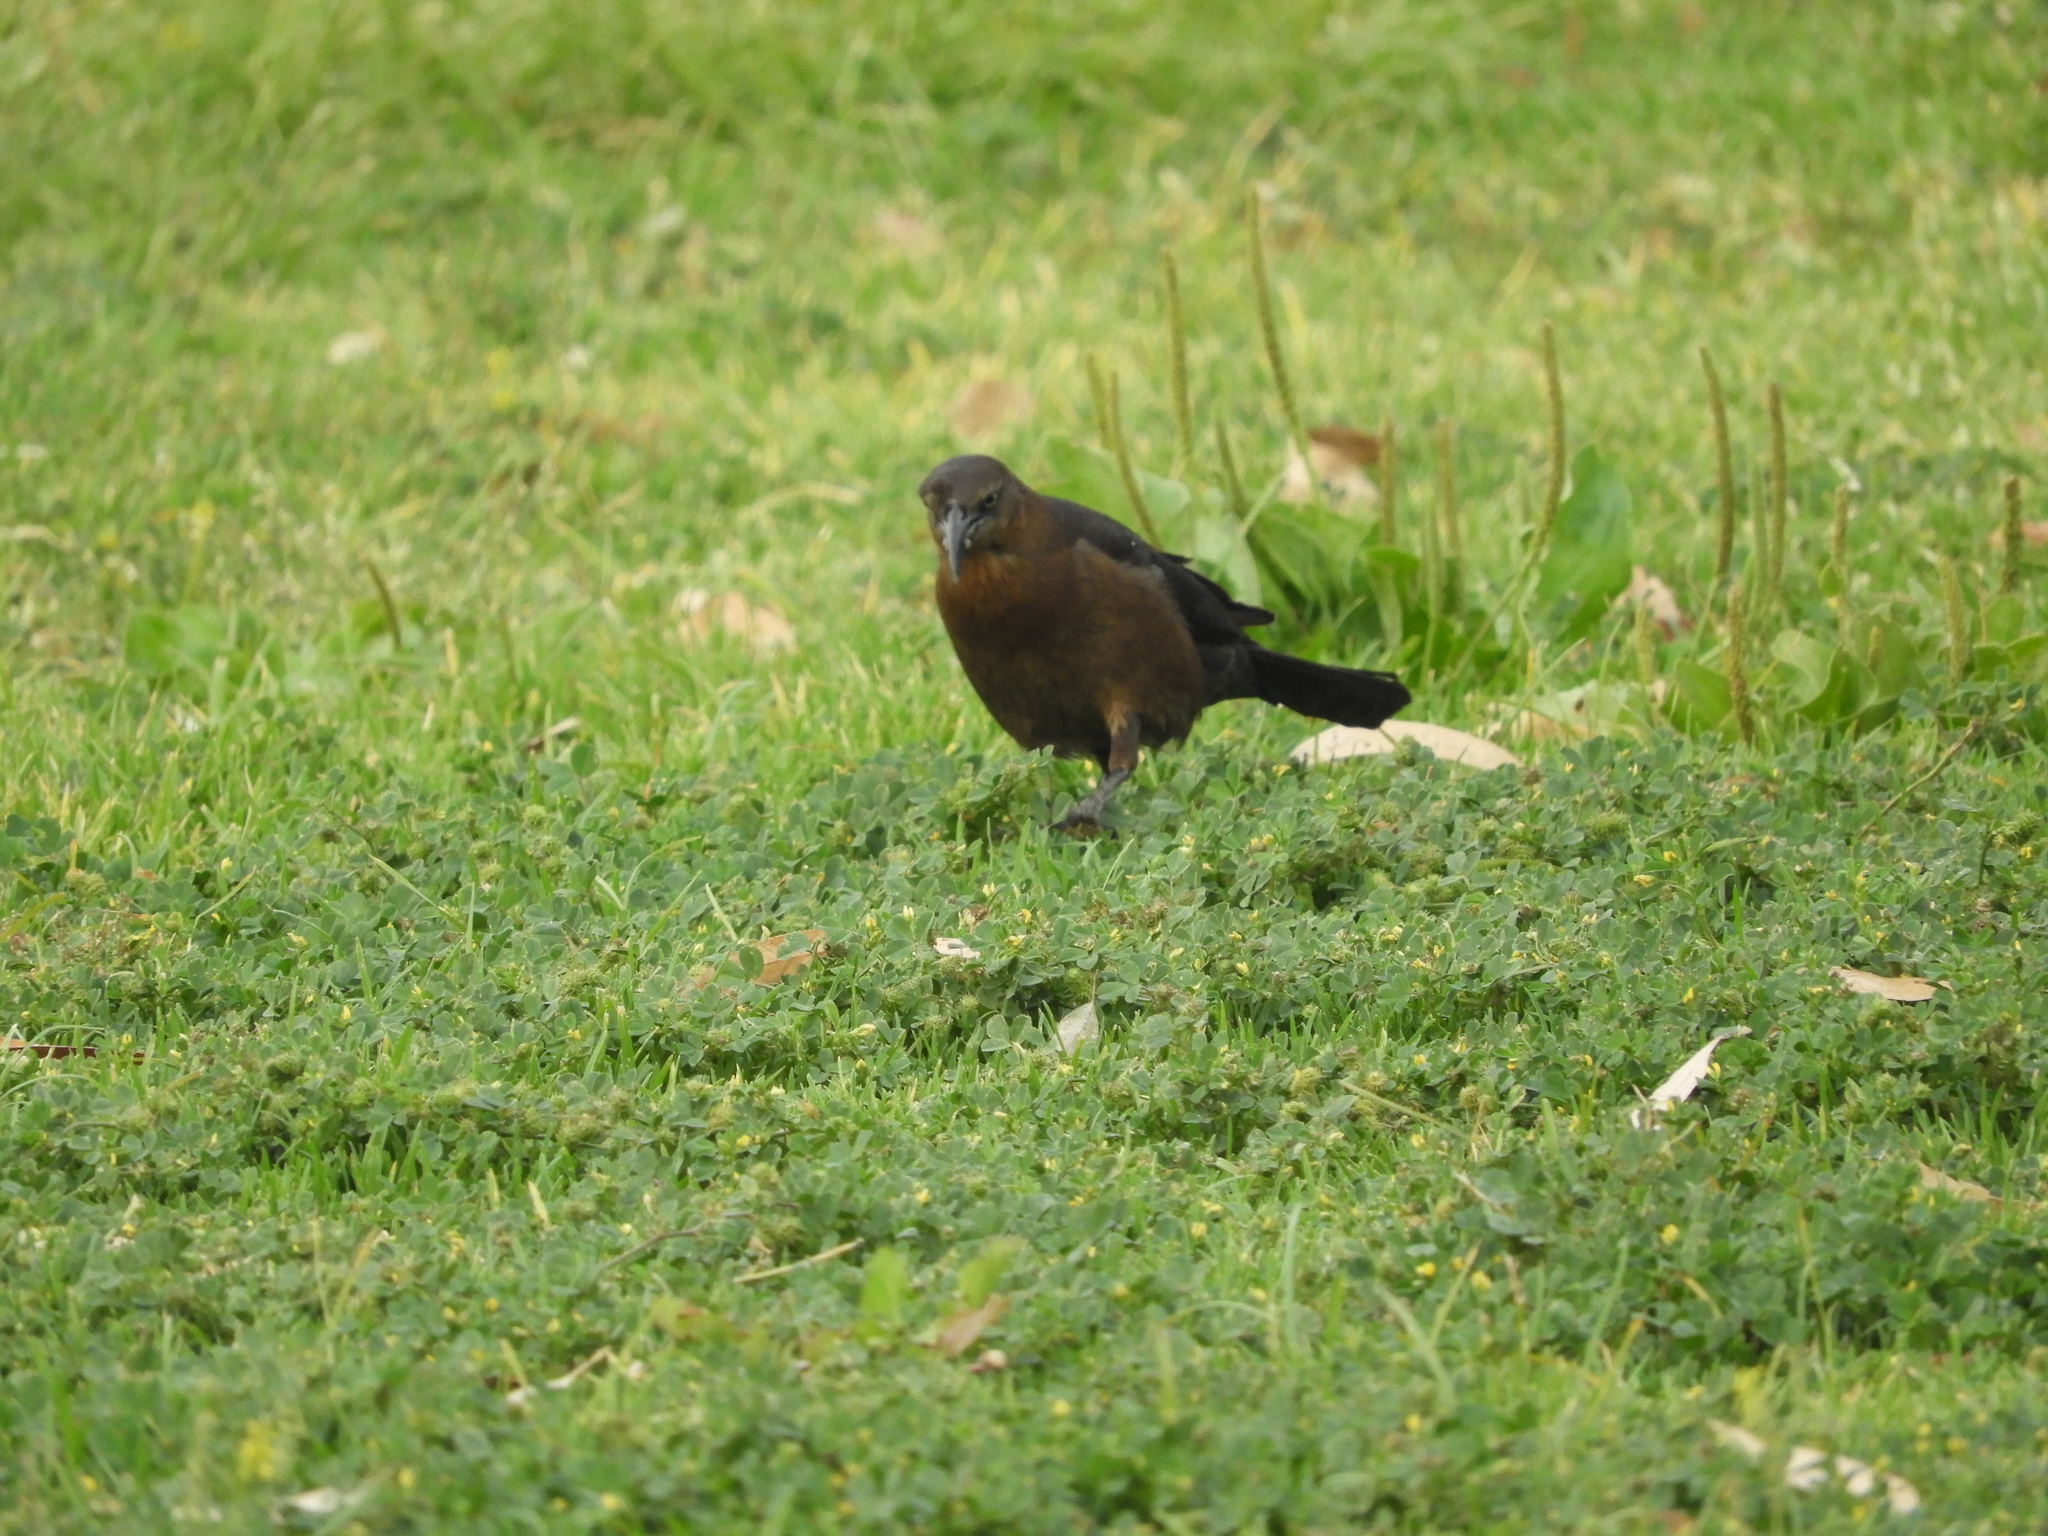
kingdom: Animalia
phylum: Chordata
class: Aves
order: Passeriformes
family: Icteridae
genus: Quiscalus
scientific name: Quiscalus mexicanus
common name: Great-tailed grackle
